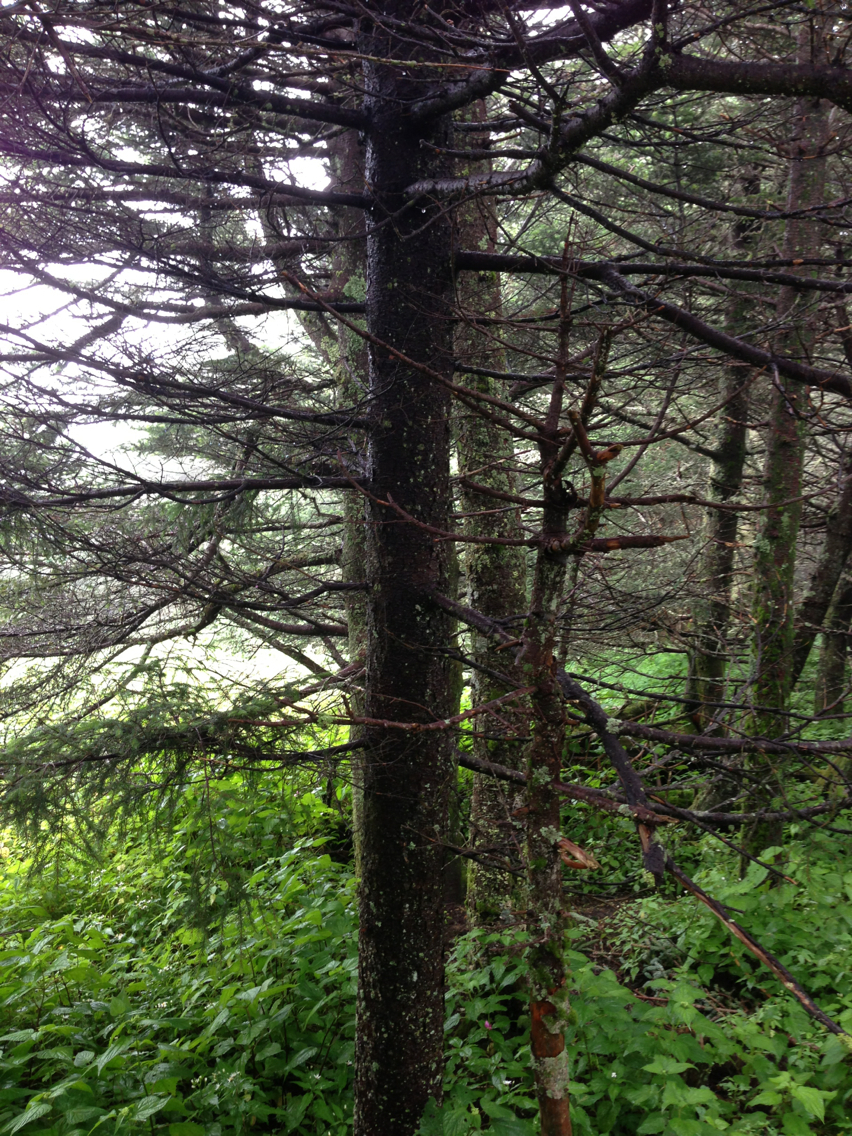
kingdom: Plantae
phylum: Tracheophyta
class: Pinopsida
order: Pinales
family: Pinaceae
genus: Picea
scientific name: Picea rubens
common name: Red spruce
